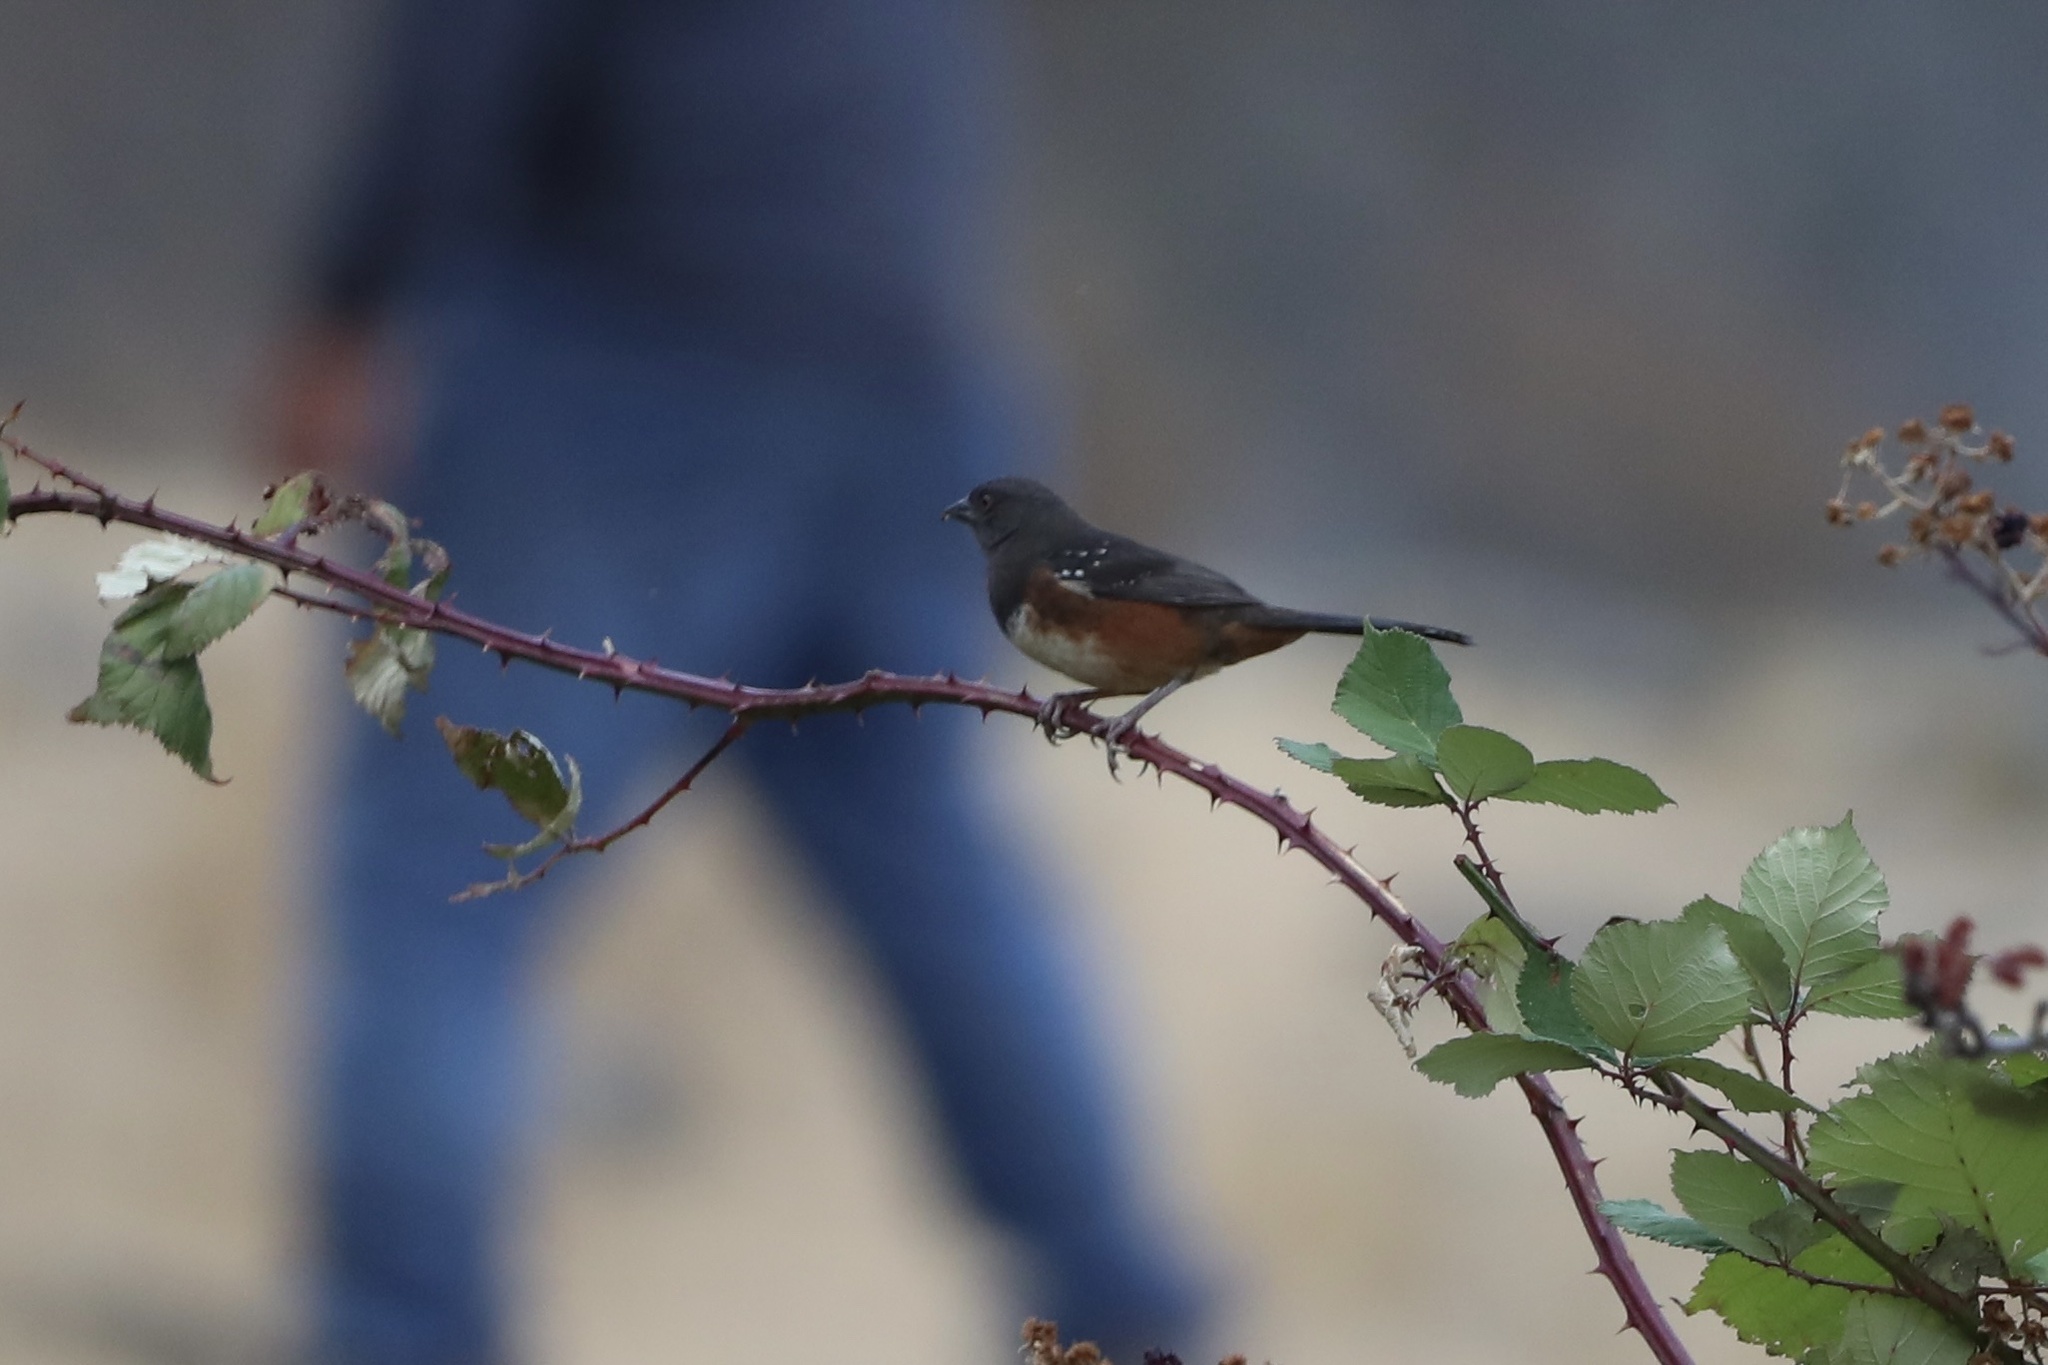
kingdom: Animalia
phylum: Chordata
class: Aves
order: Passeriformes
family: Passerellidae
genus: Pipilo
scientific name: Pipilo maculatus
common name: Spotted towhee
